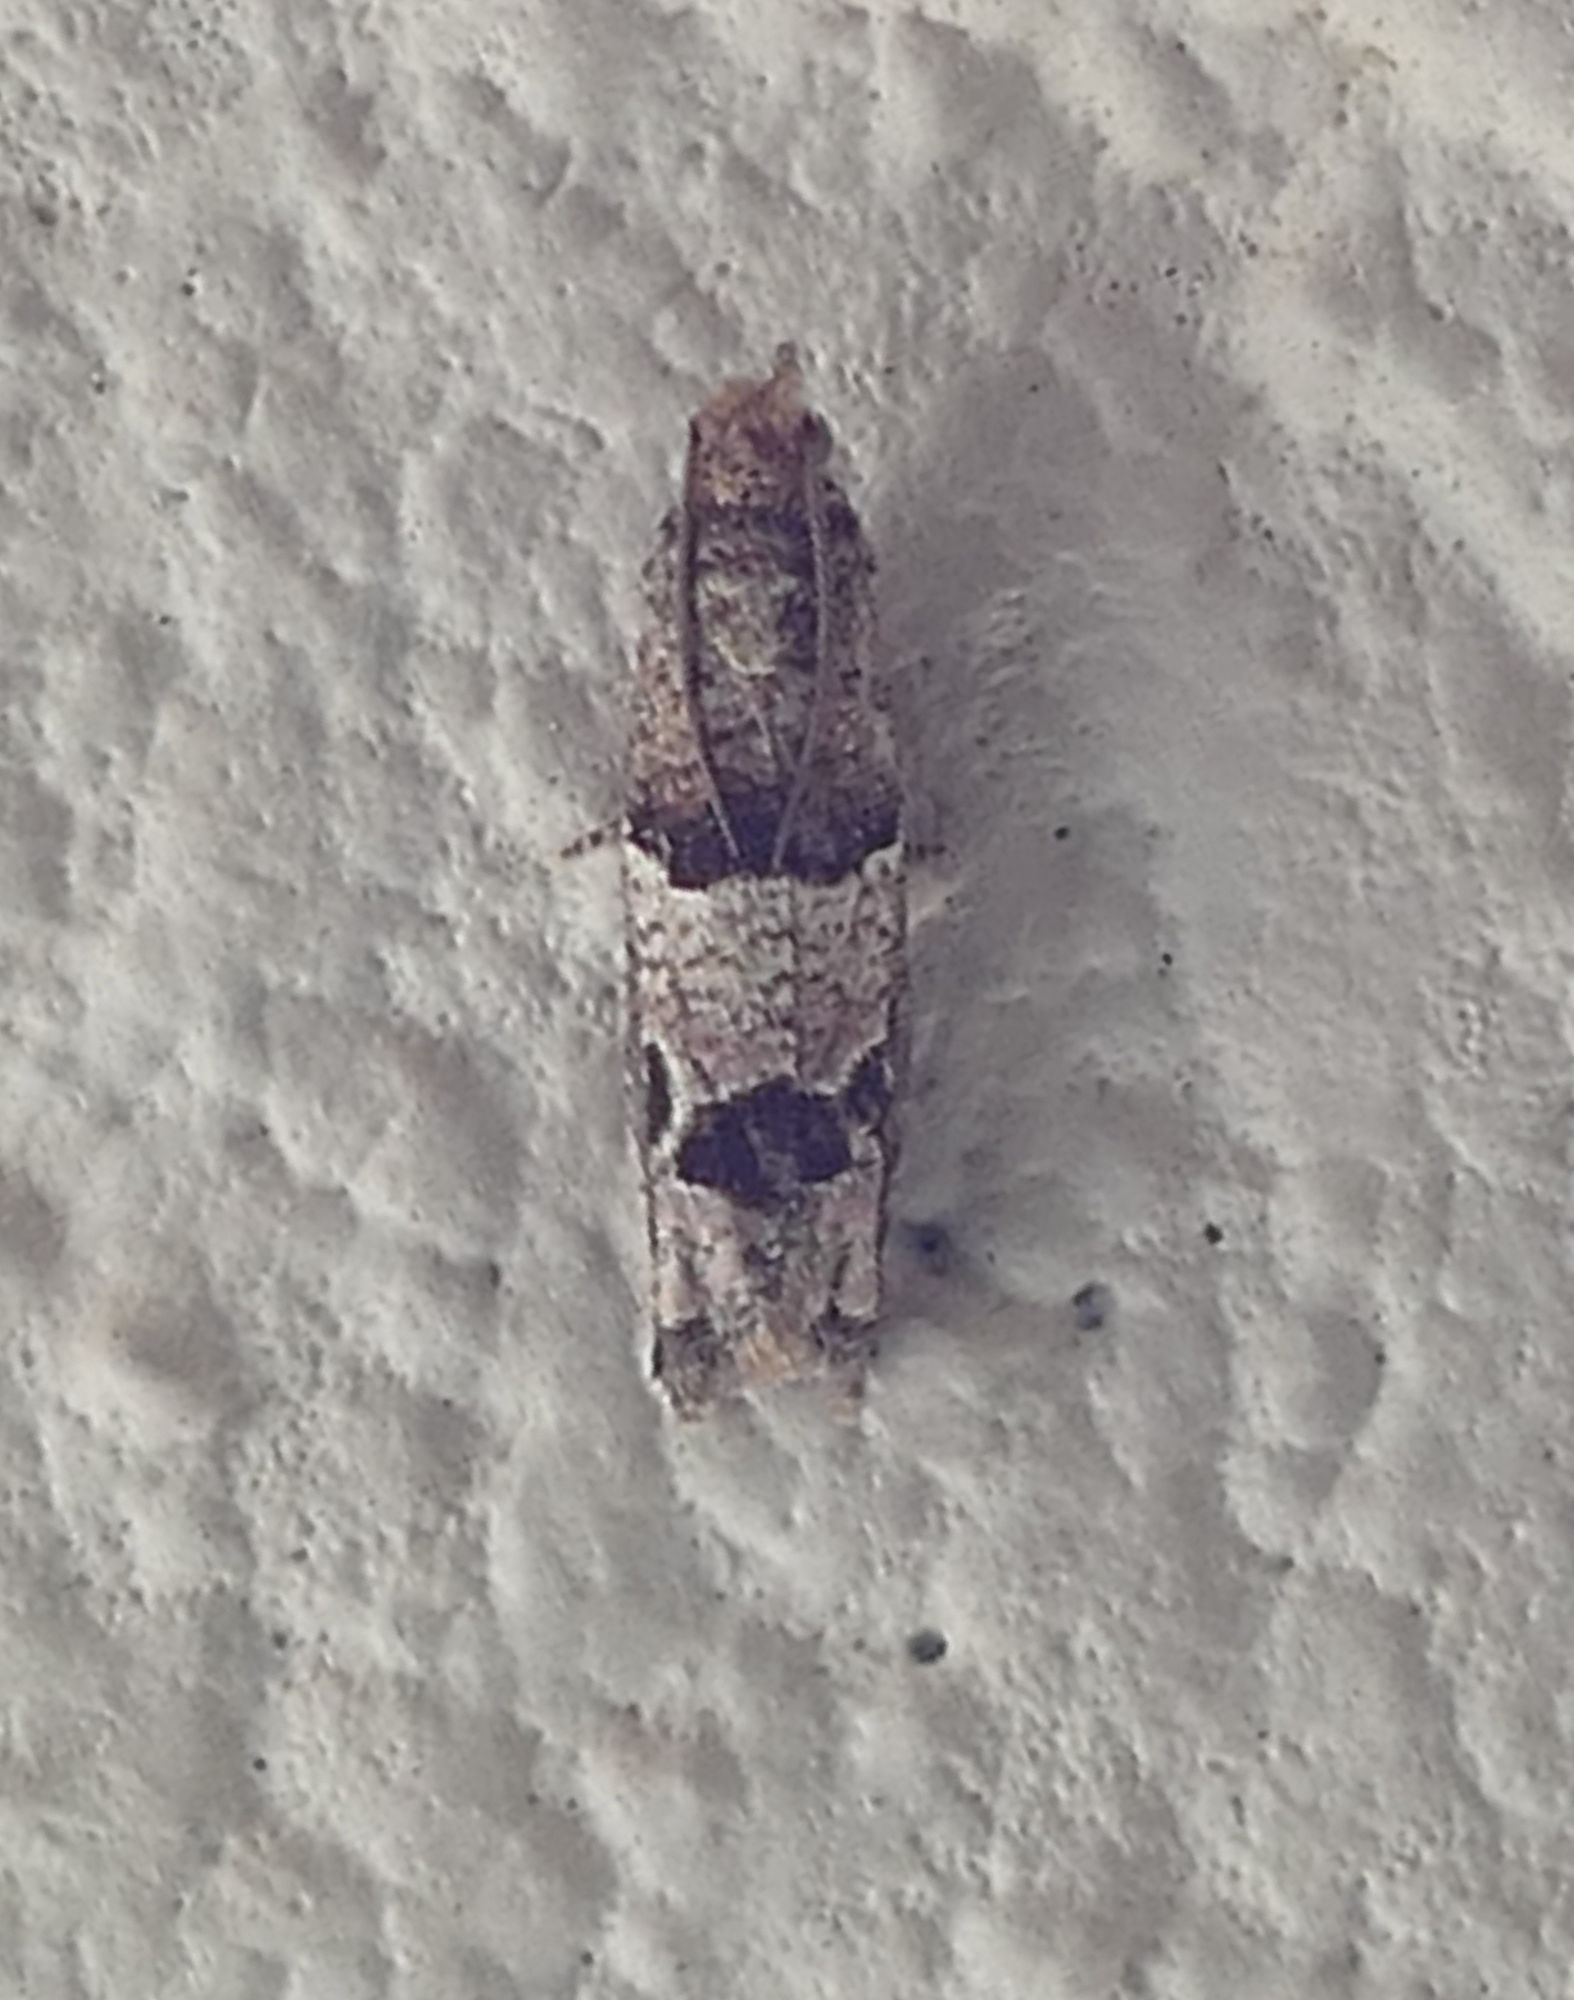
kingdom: Animalia
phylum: Arthropoda
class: Insecta
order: Lepidoptera
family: Tortricidae
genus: Sonia
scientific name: Sonia constrictana
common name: Constricted sonia moth
